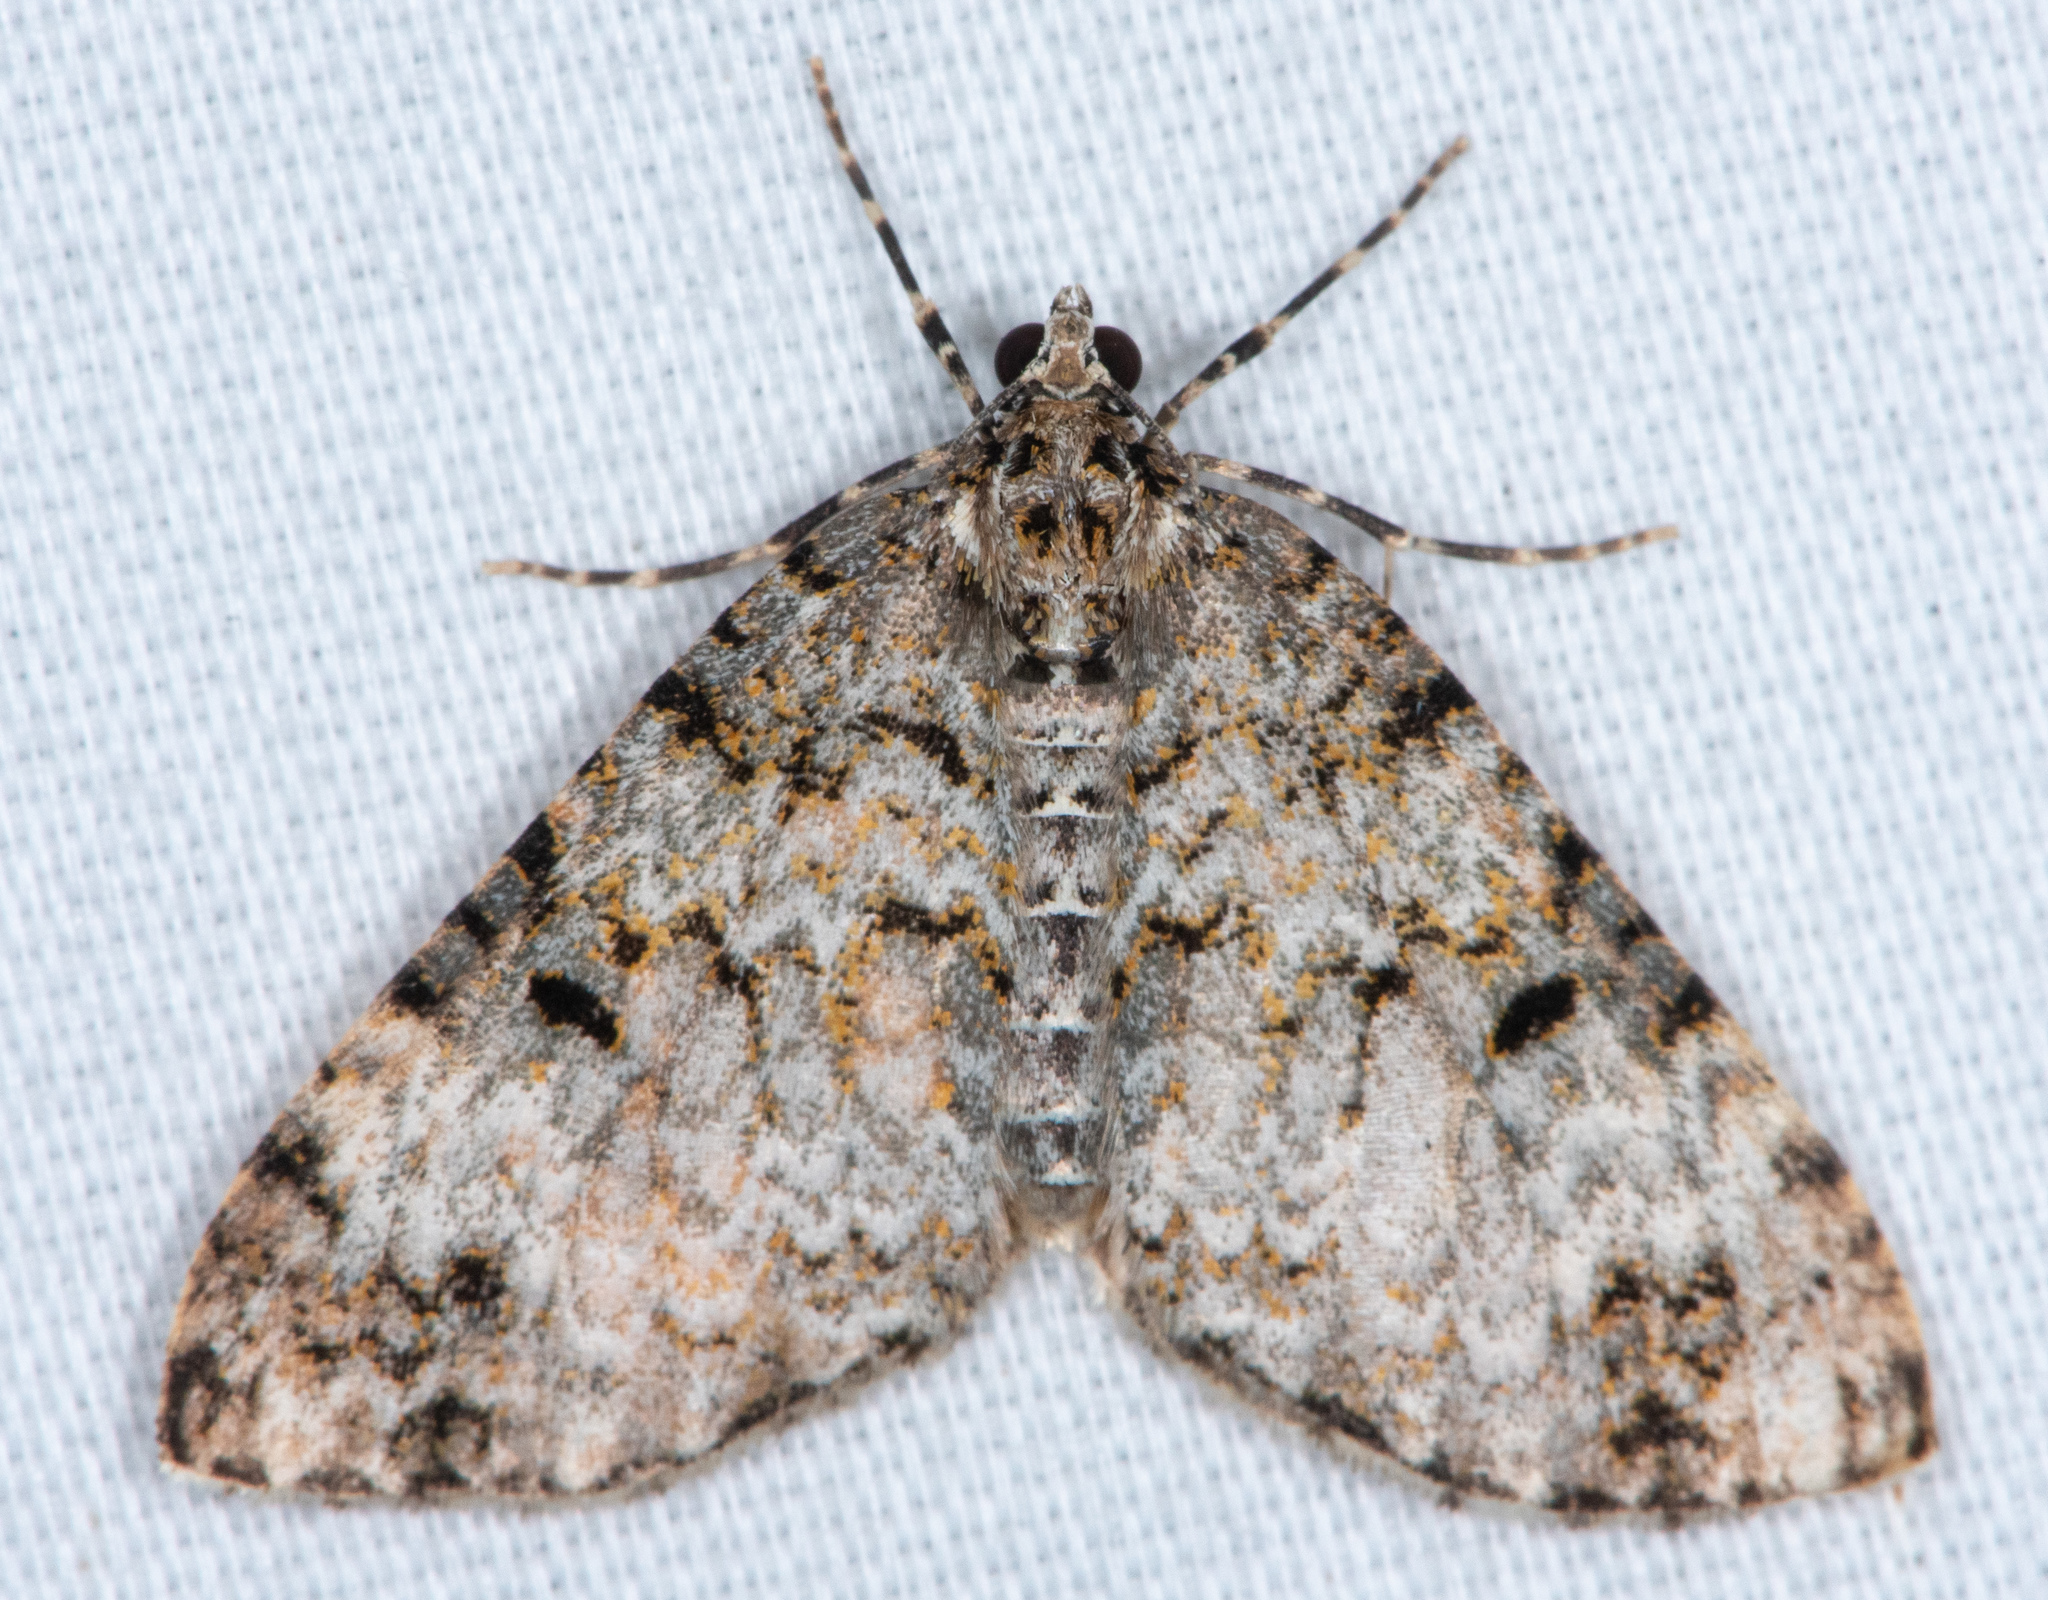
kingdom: Animalia
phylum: Arthropoda
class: Insecta
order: Lepidoptera
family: Geometridae
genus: Spargania
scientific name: Spargania magnoliata
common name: Double-banded carpet
